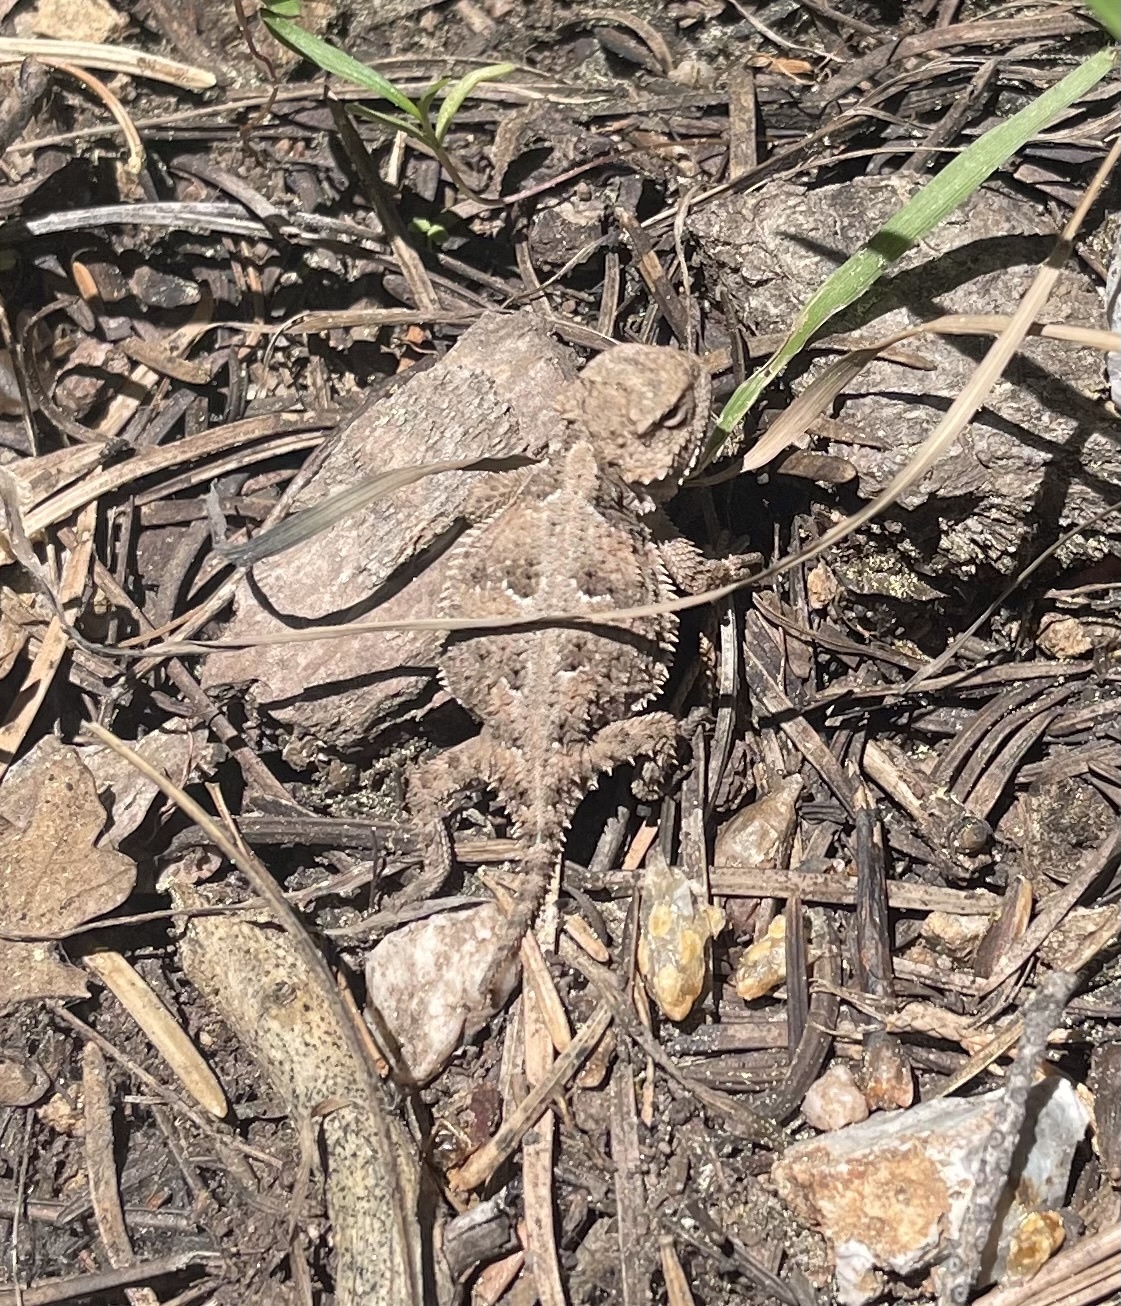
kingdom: Animalia
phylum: Chordata
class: Squamata
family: Phrynosomatidae
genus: Phrynosoma
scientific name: Phrynosoma hernandesi
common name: Greater short-horned lizard
